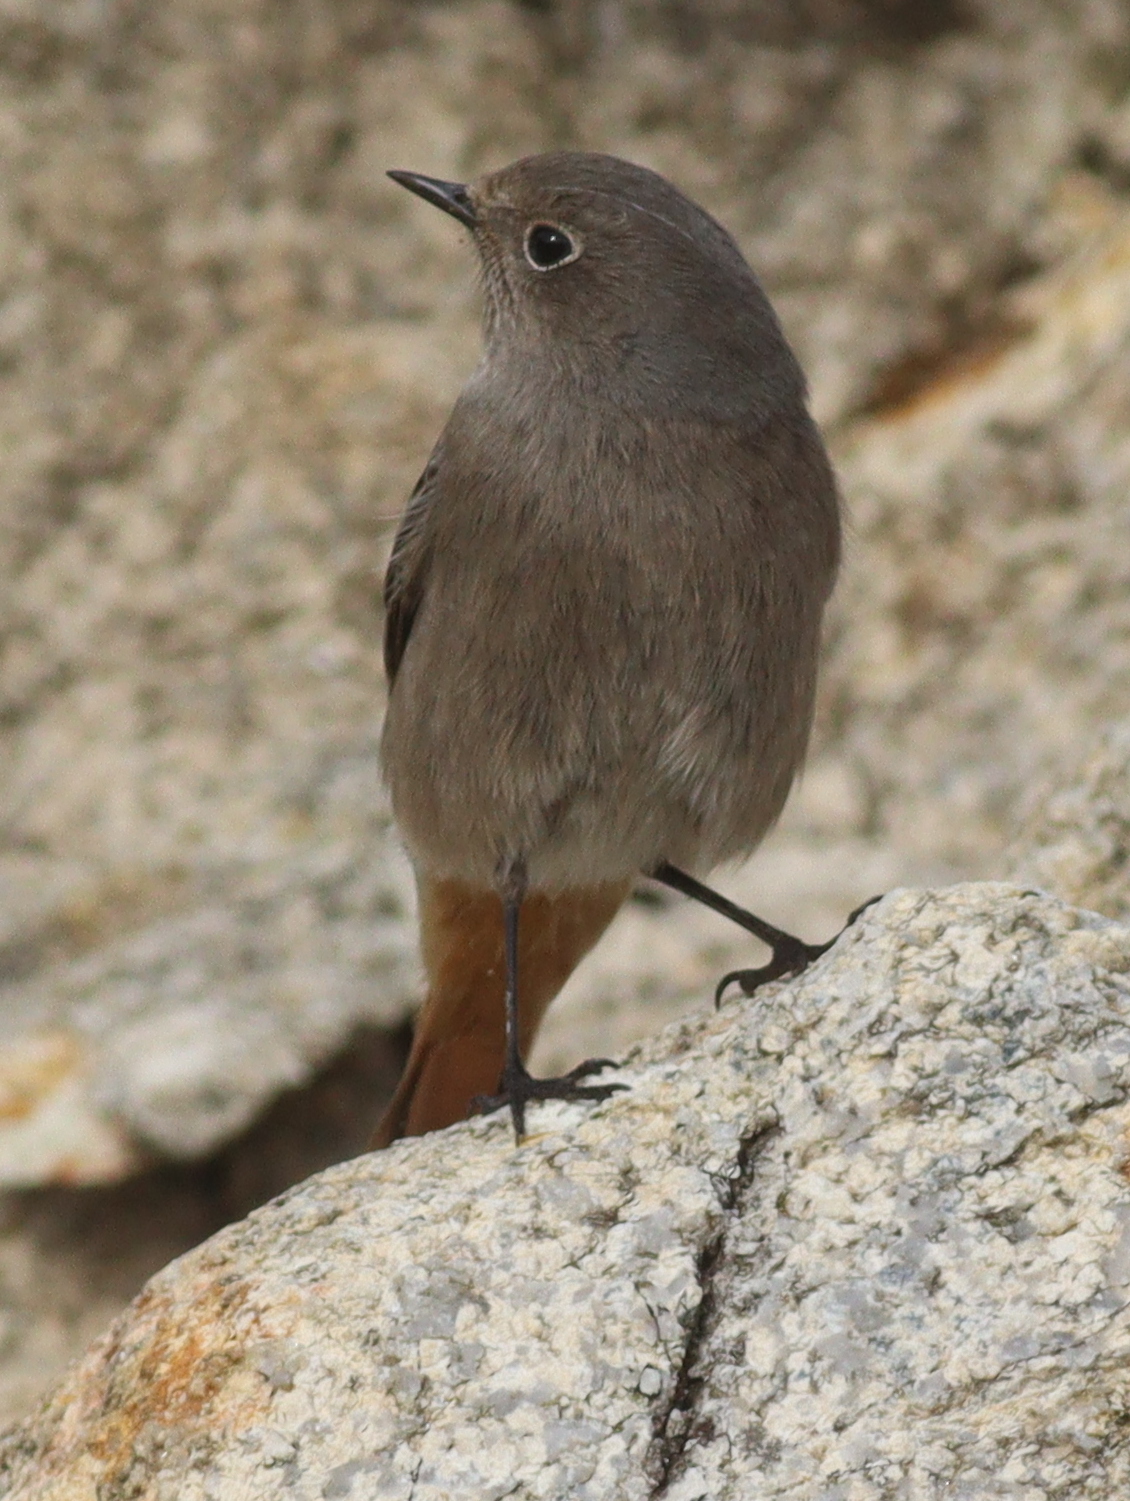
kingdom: Animalia
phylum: Chordata
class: Aves
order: Passeriformes
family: Muscicapidae
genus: Phoenicurus
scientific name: Phoenicurus ochruros
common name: Black redstart
